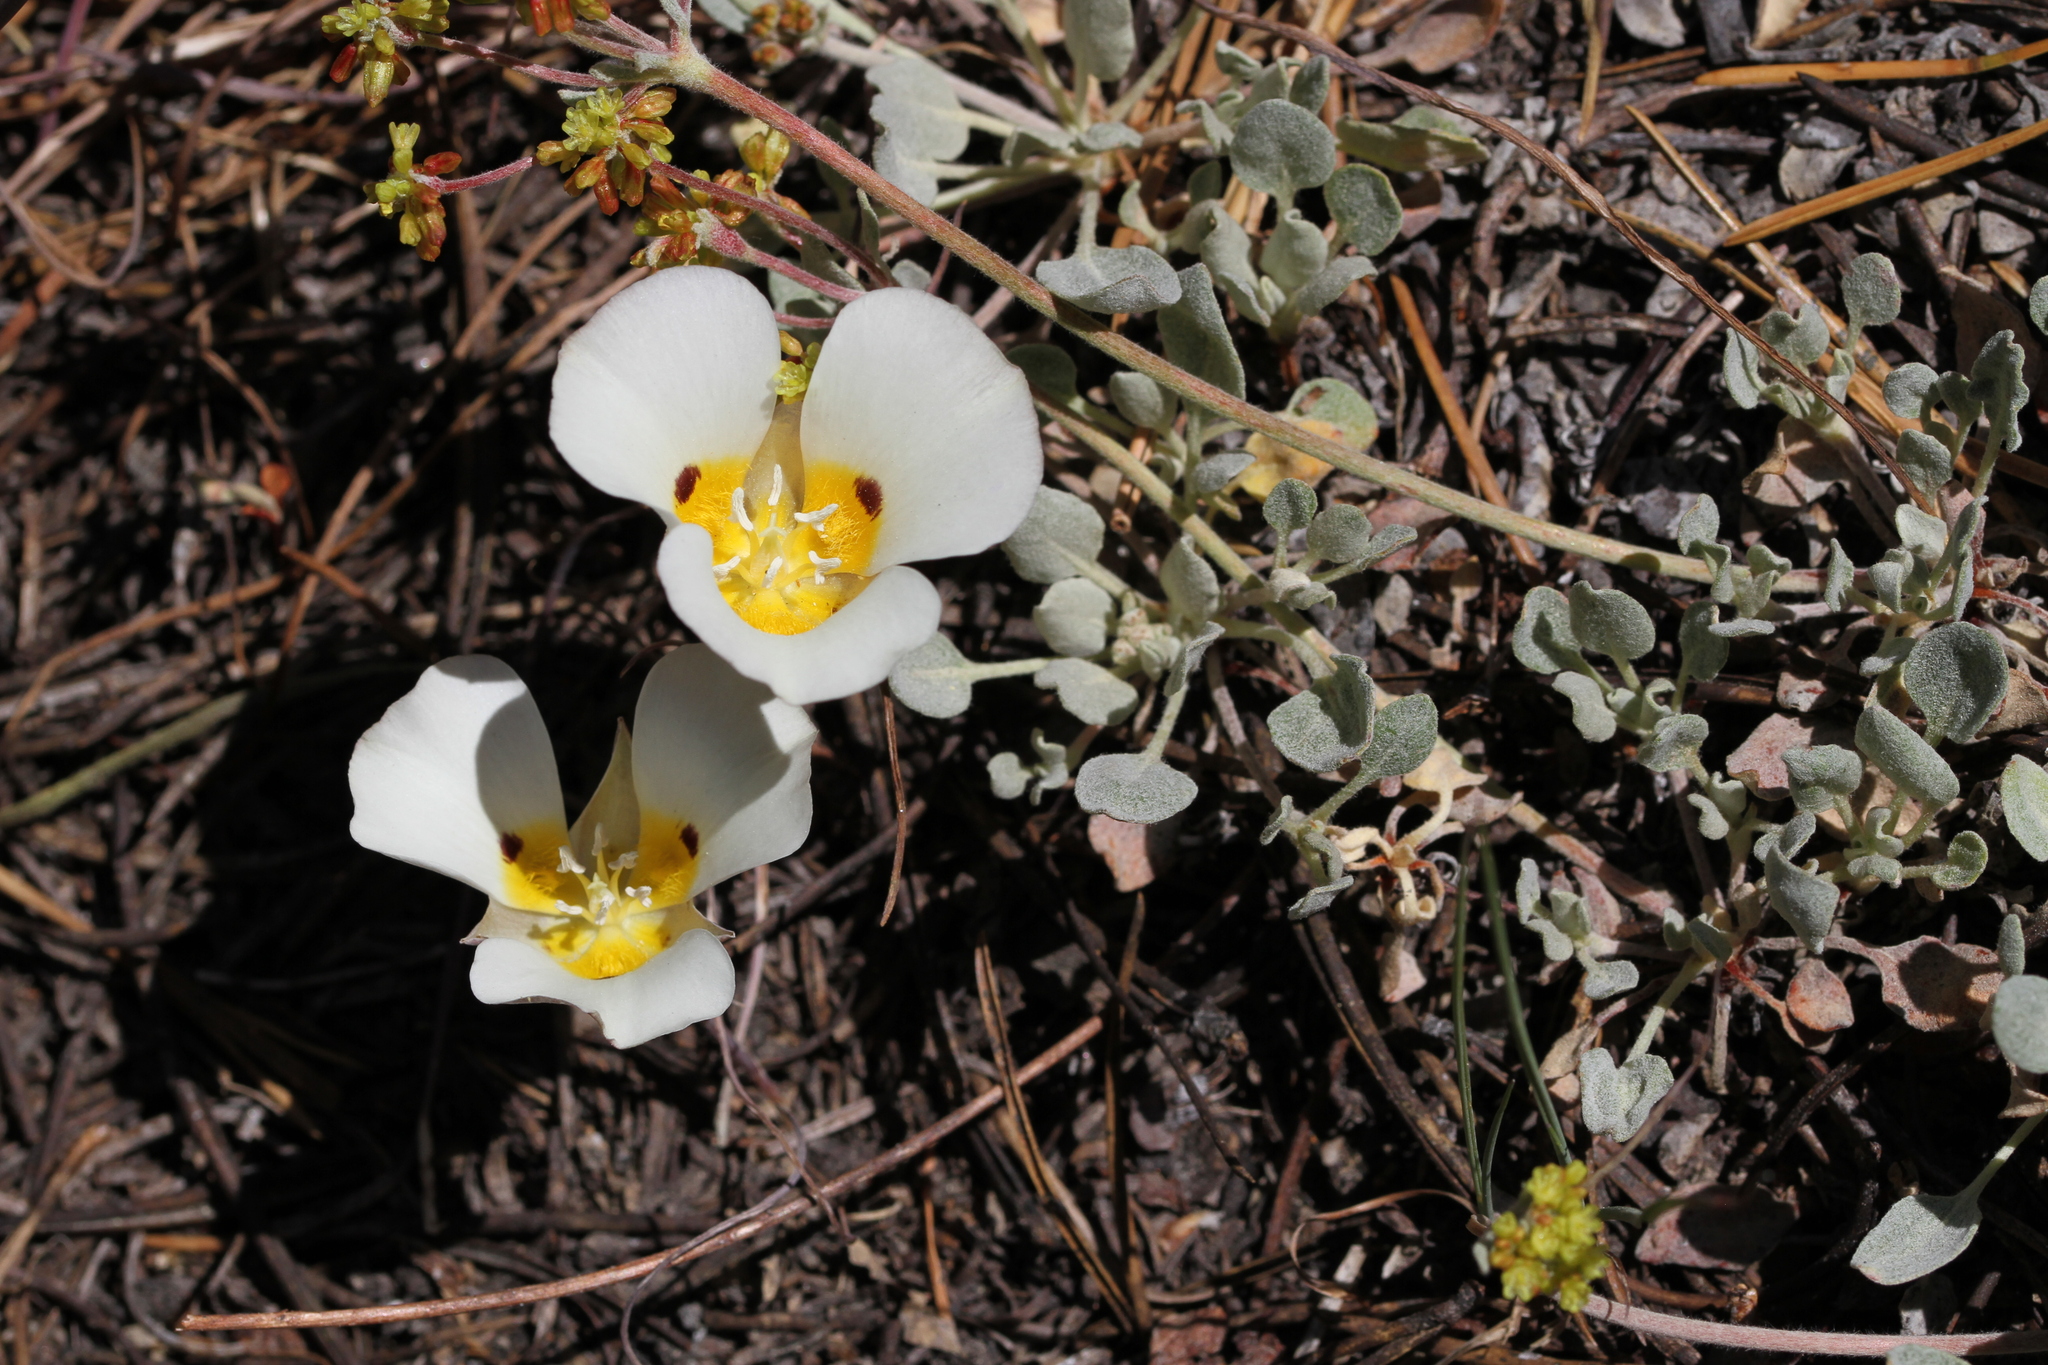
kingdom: Plantae
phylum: Tracheophyta
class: Liliopsida
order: Liliales
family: Liliaceae
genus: Calochortus
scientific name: Calochortus leichtlinii
